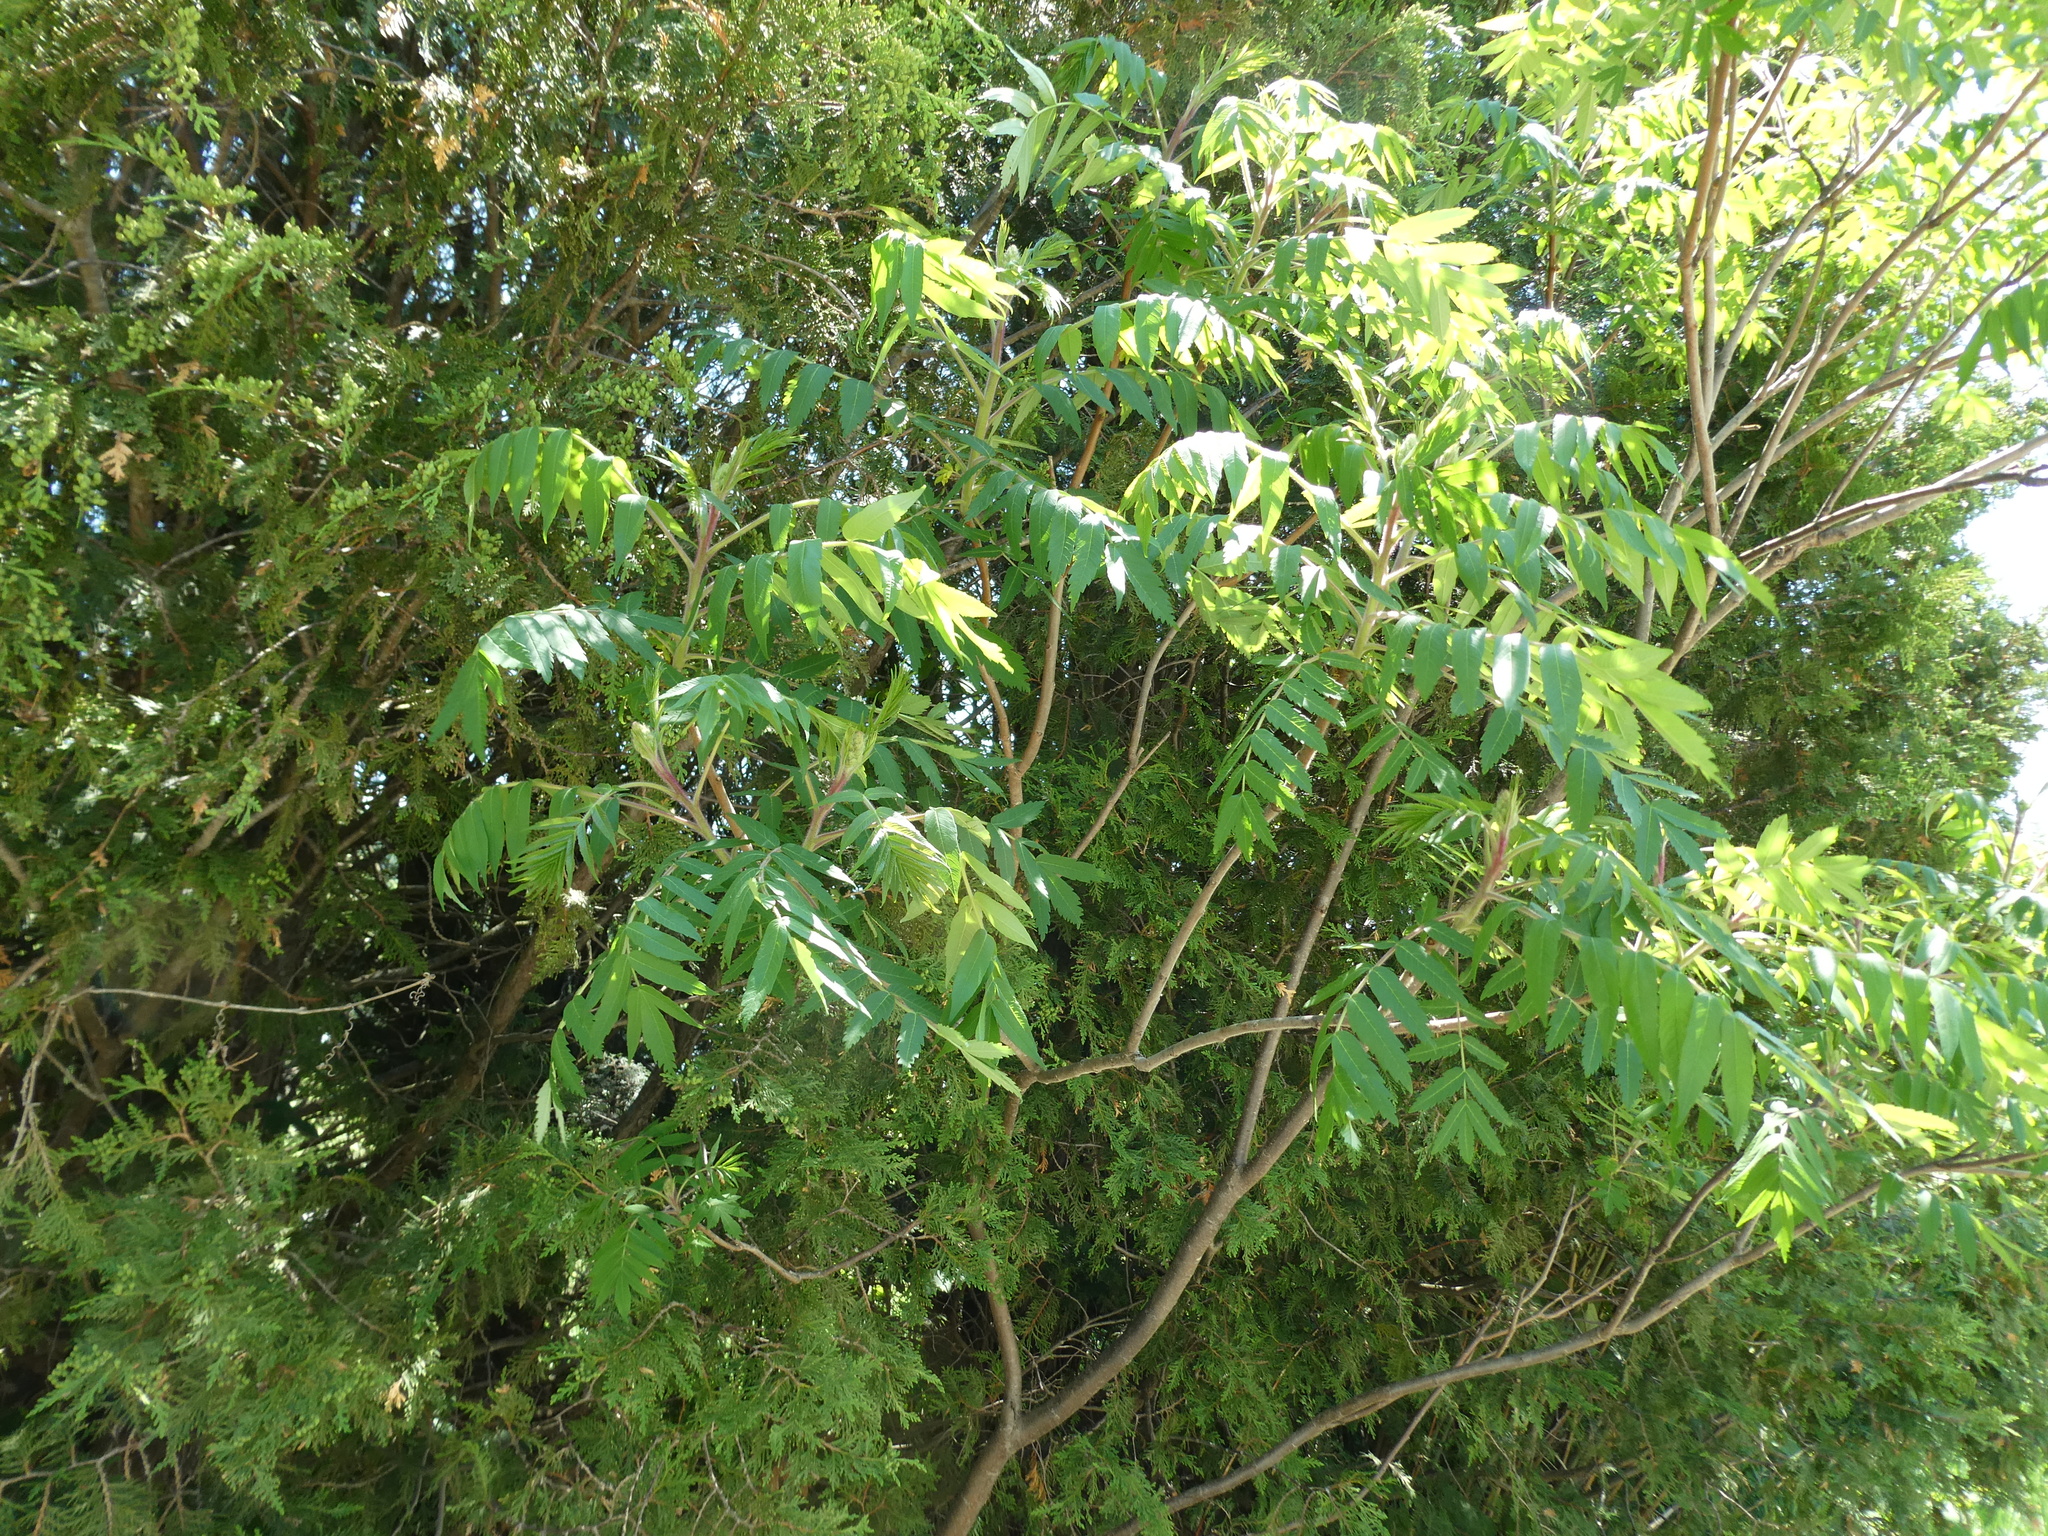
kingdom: Plantae
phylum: Tracheophyta
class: Magnoliopsida
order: Sapindales
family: Anacardiaceae
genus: Rhus
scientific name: Rhus typhina
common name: Staghorn sumac
